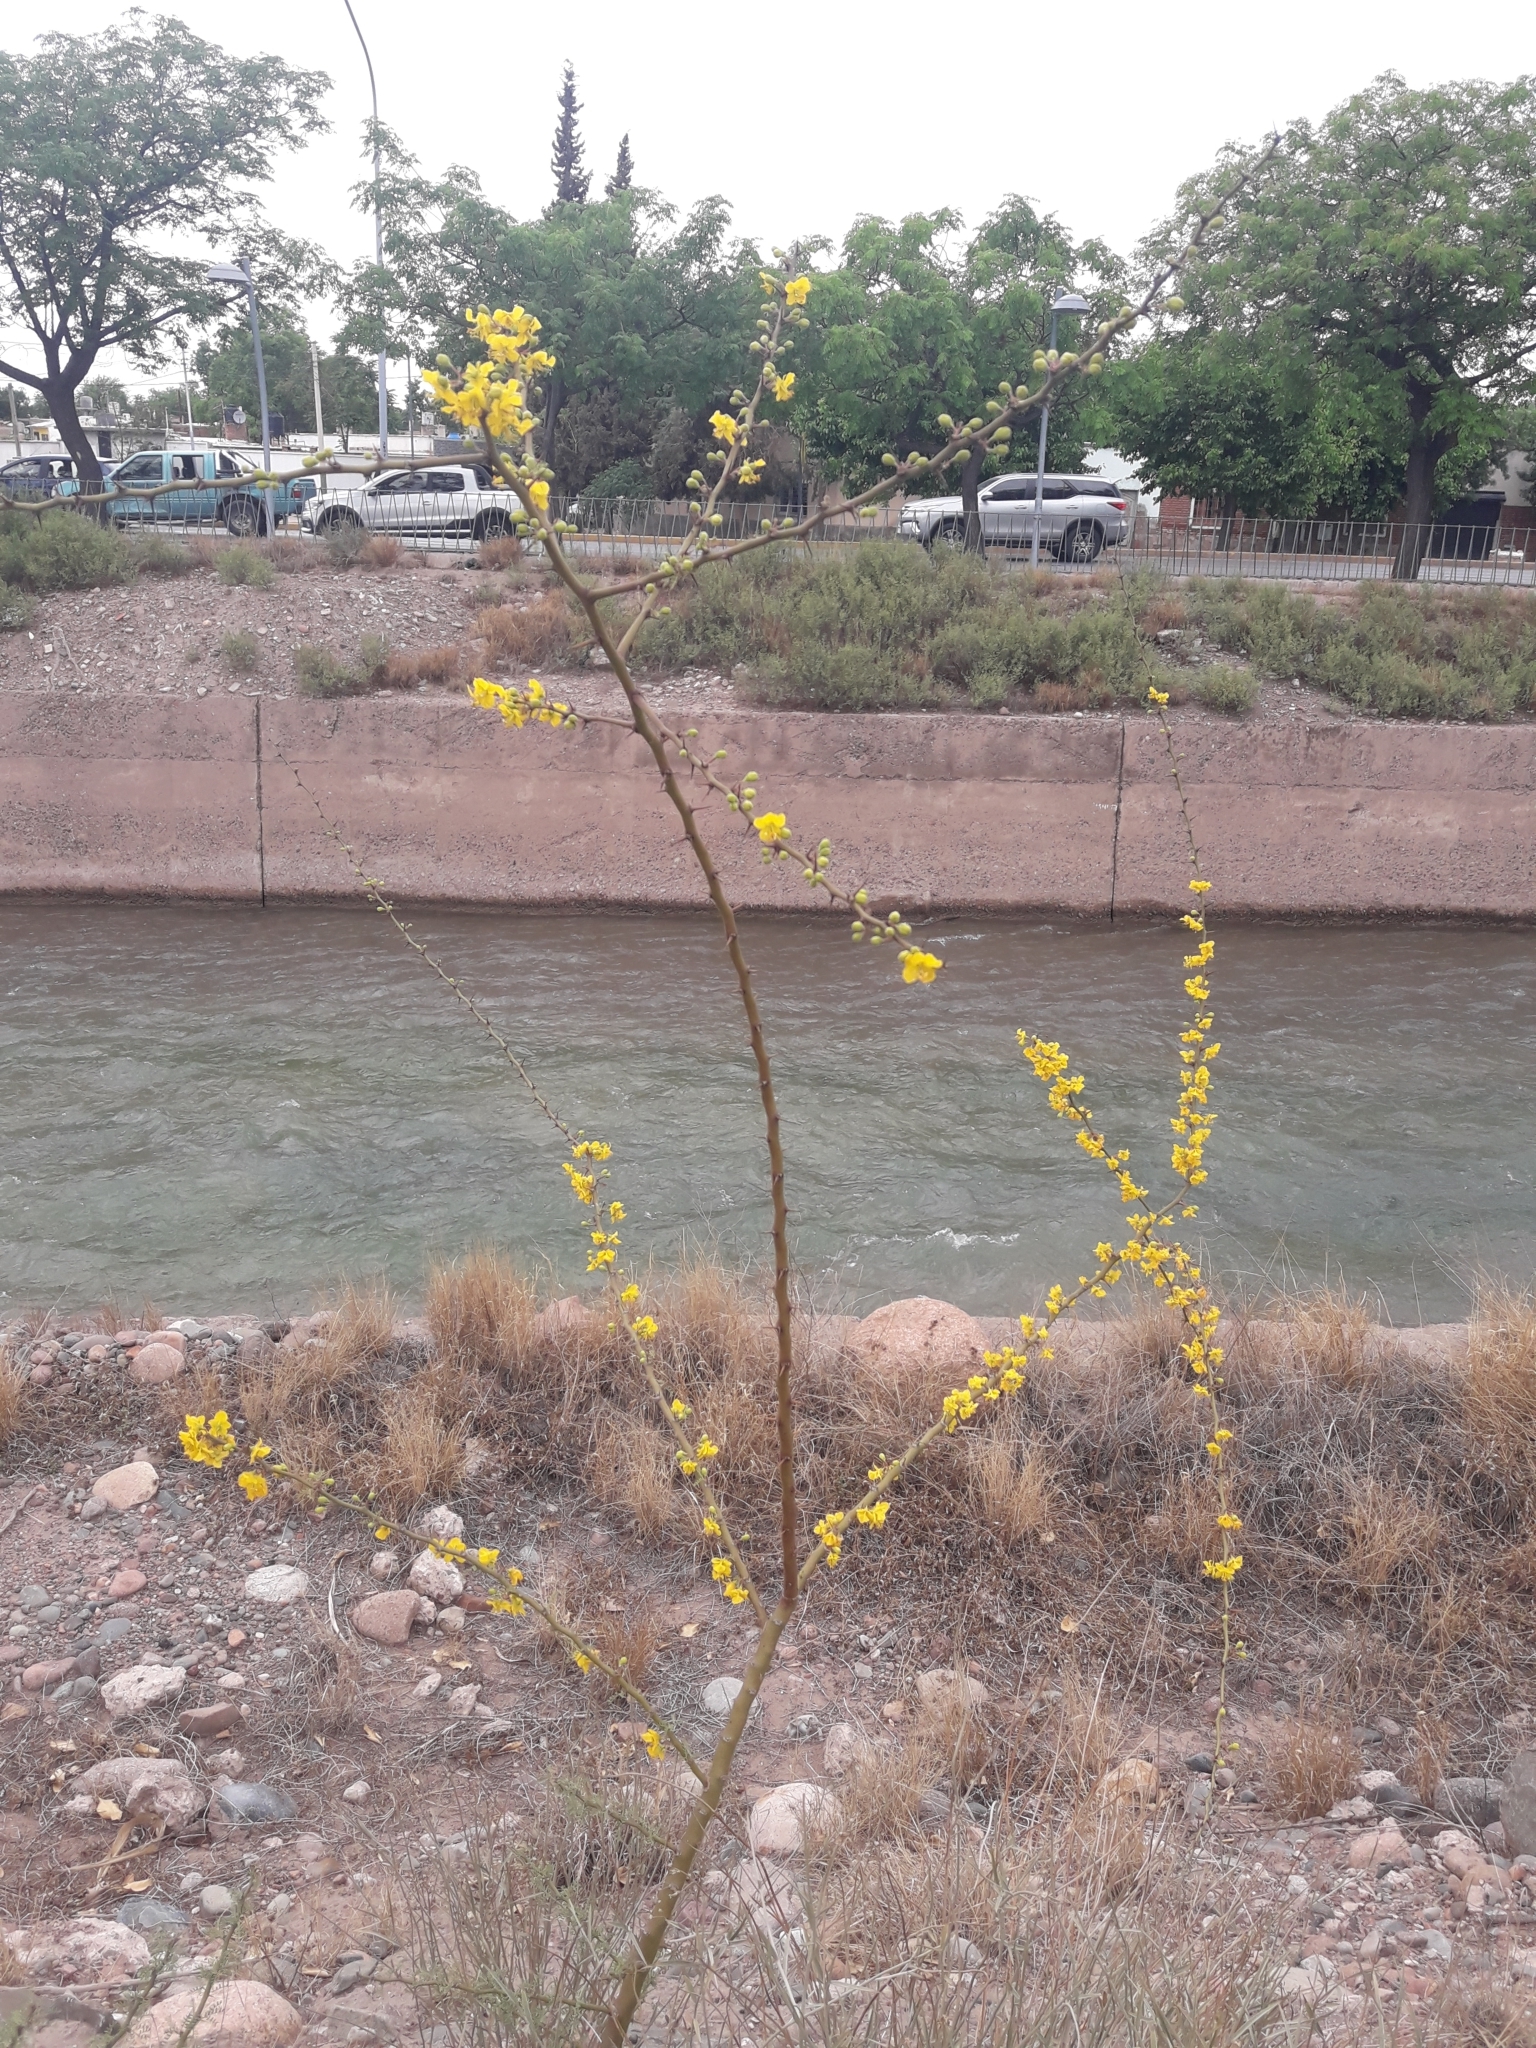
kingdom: Plantae
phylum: Tracheophyta
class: Magnoliopsida
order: Fabales
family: Fabaceae
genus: Parkinsonia
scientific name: Parkinsonia praecox
